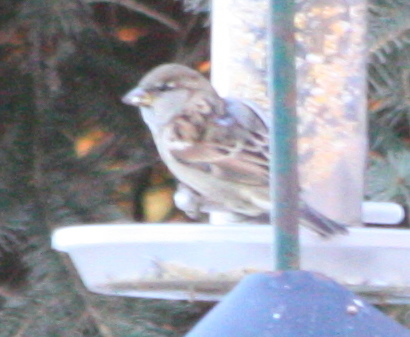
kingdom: Animalia
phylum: Chordata
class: Aves
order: Passeriformes
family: Passeridae
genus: Passer
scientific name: Passer domesticus
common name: House sparrow
